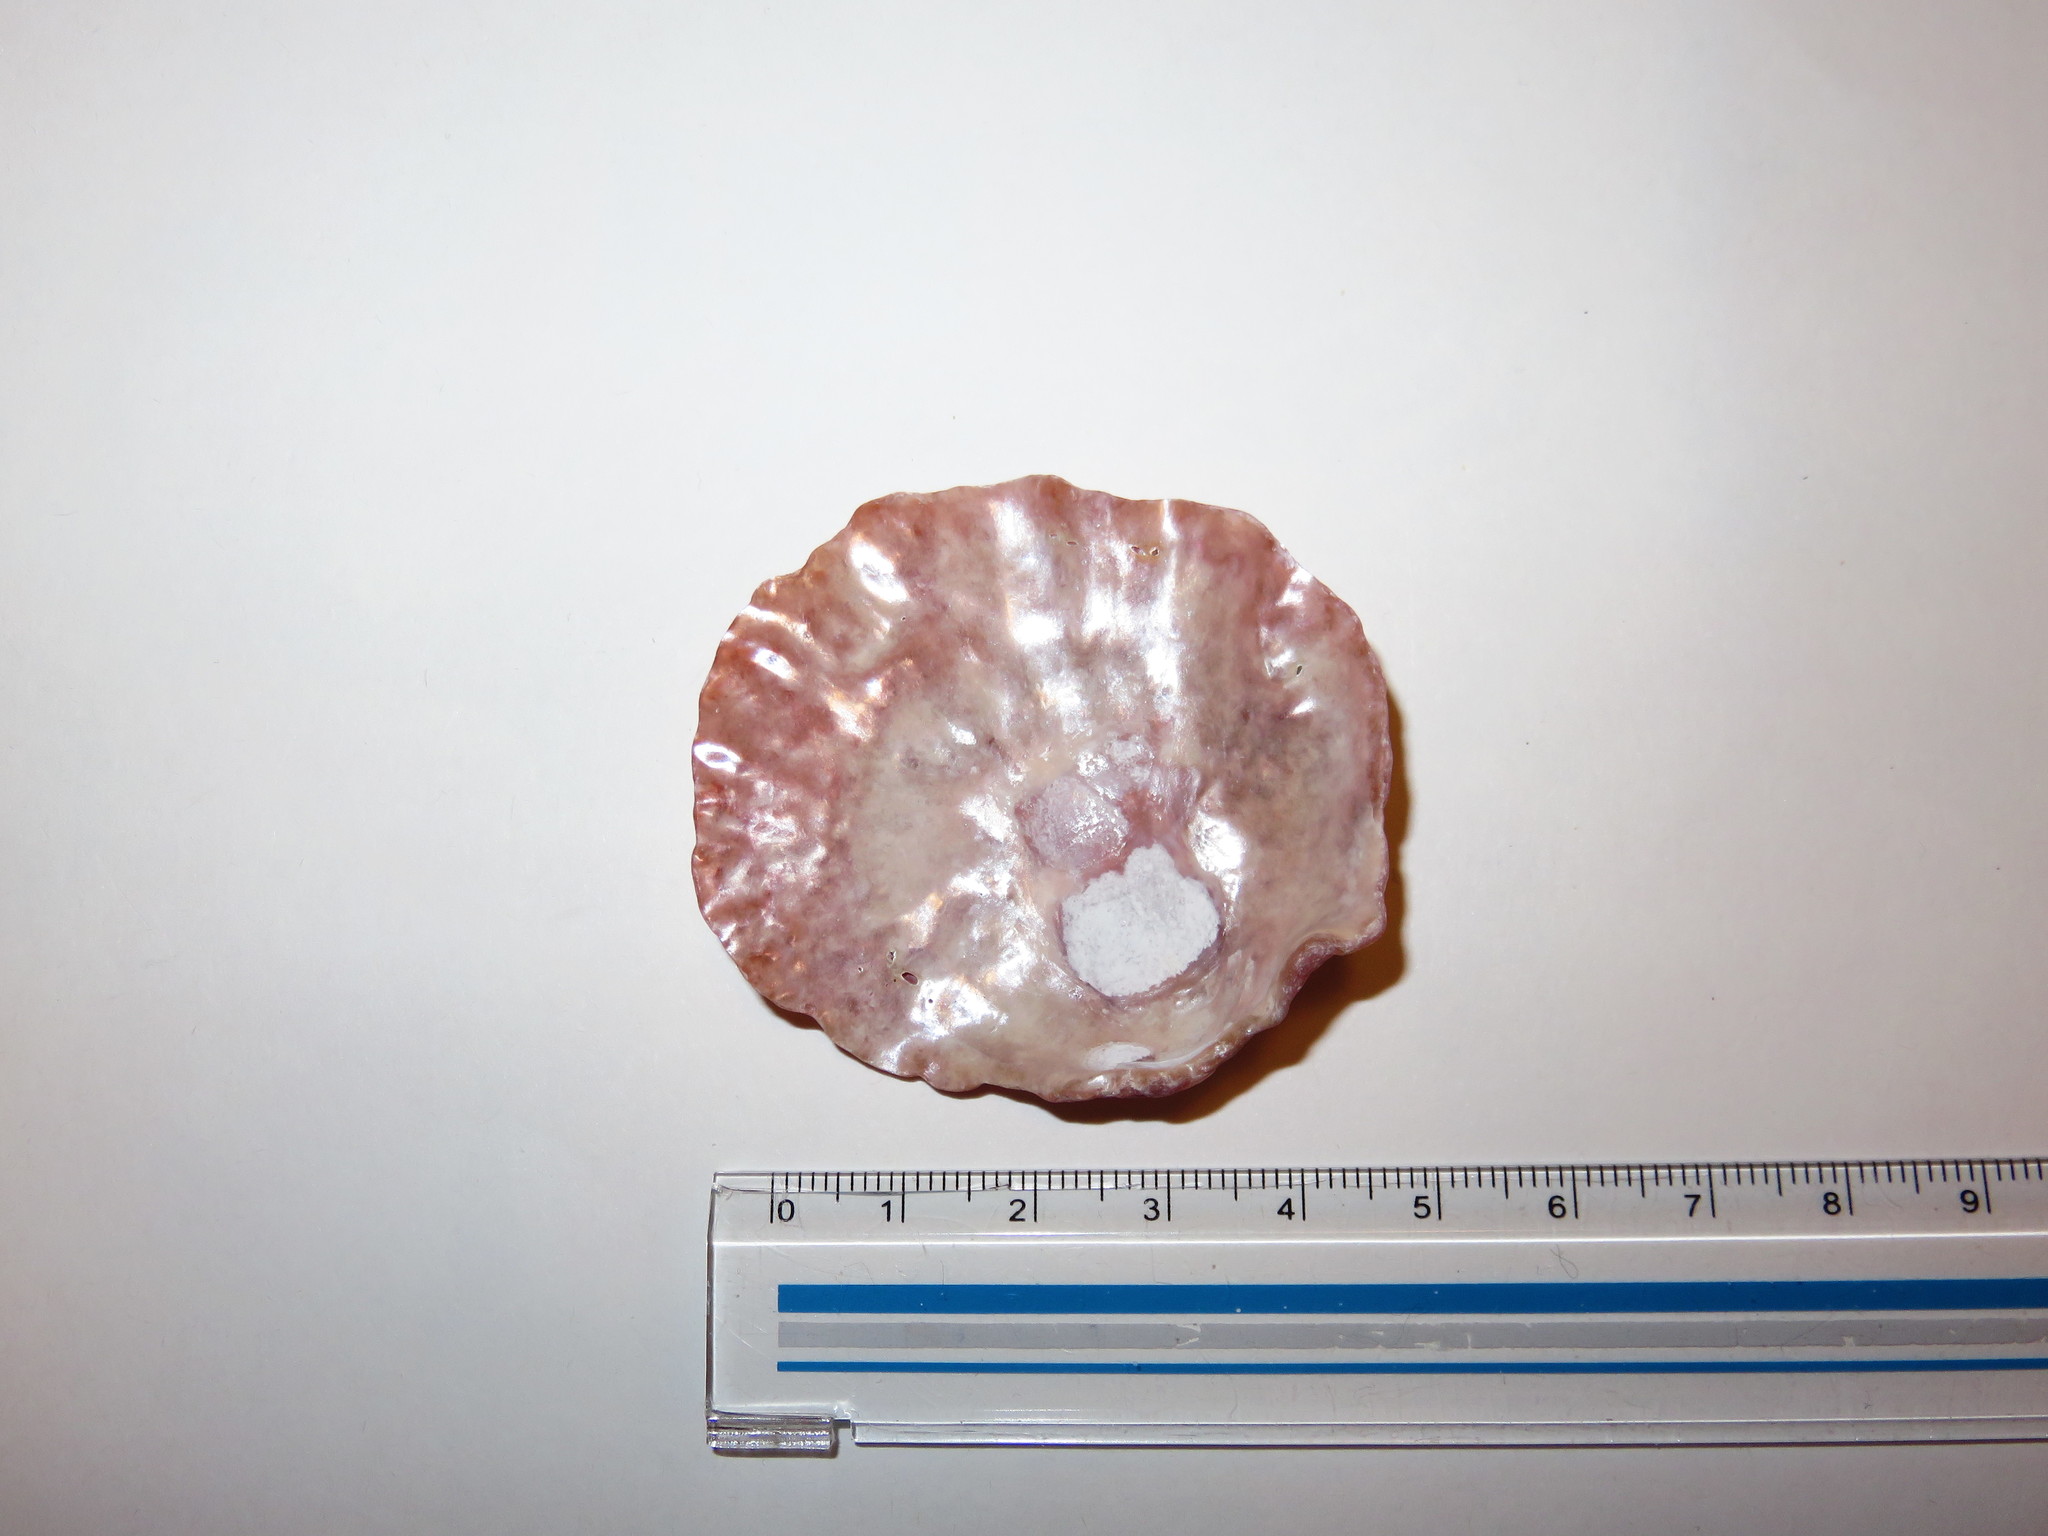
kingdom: Animalia
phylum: Mollusca
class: Bivalvia
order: Pectinida
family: Anomiidae
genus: Anomia
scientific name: Anomia chinensis
